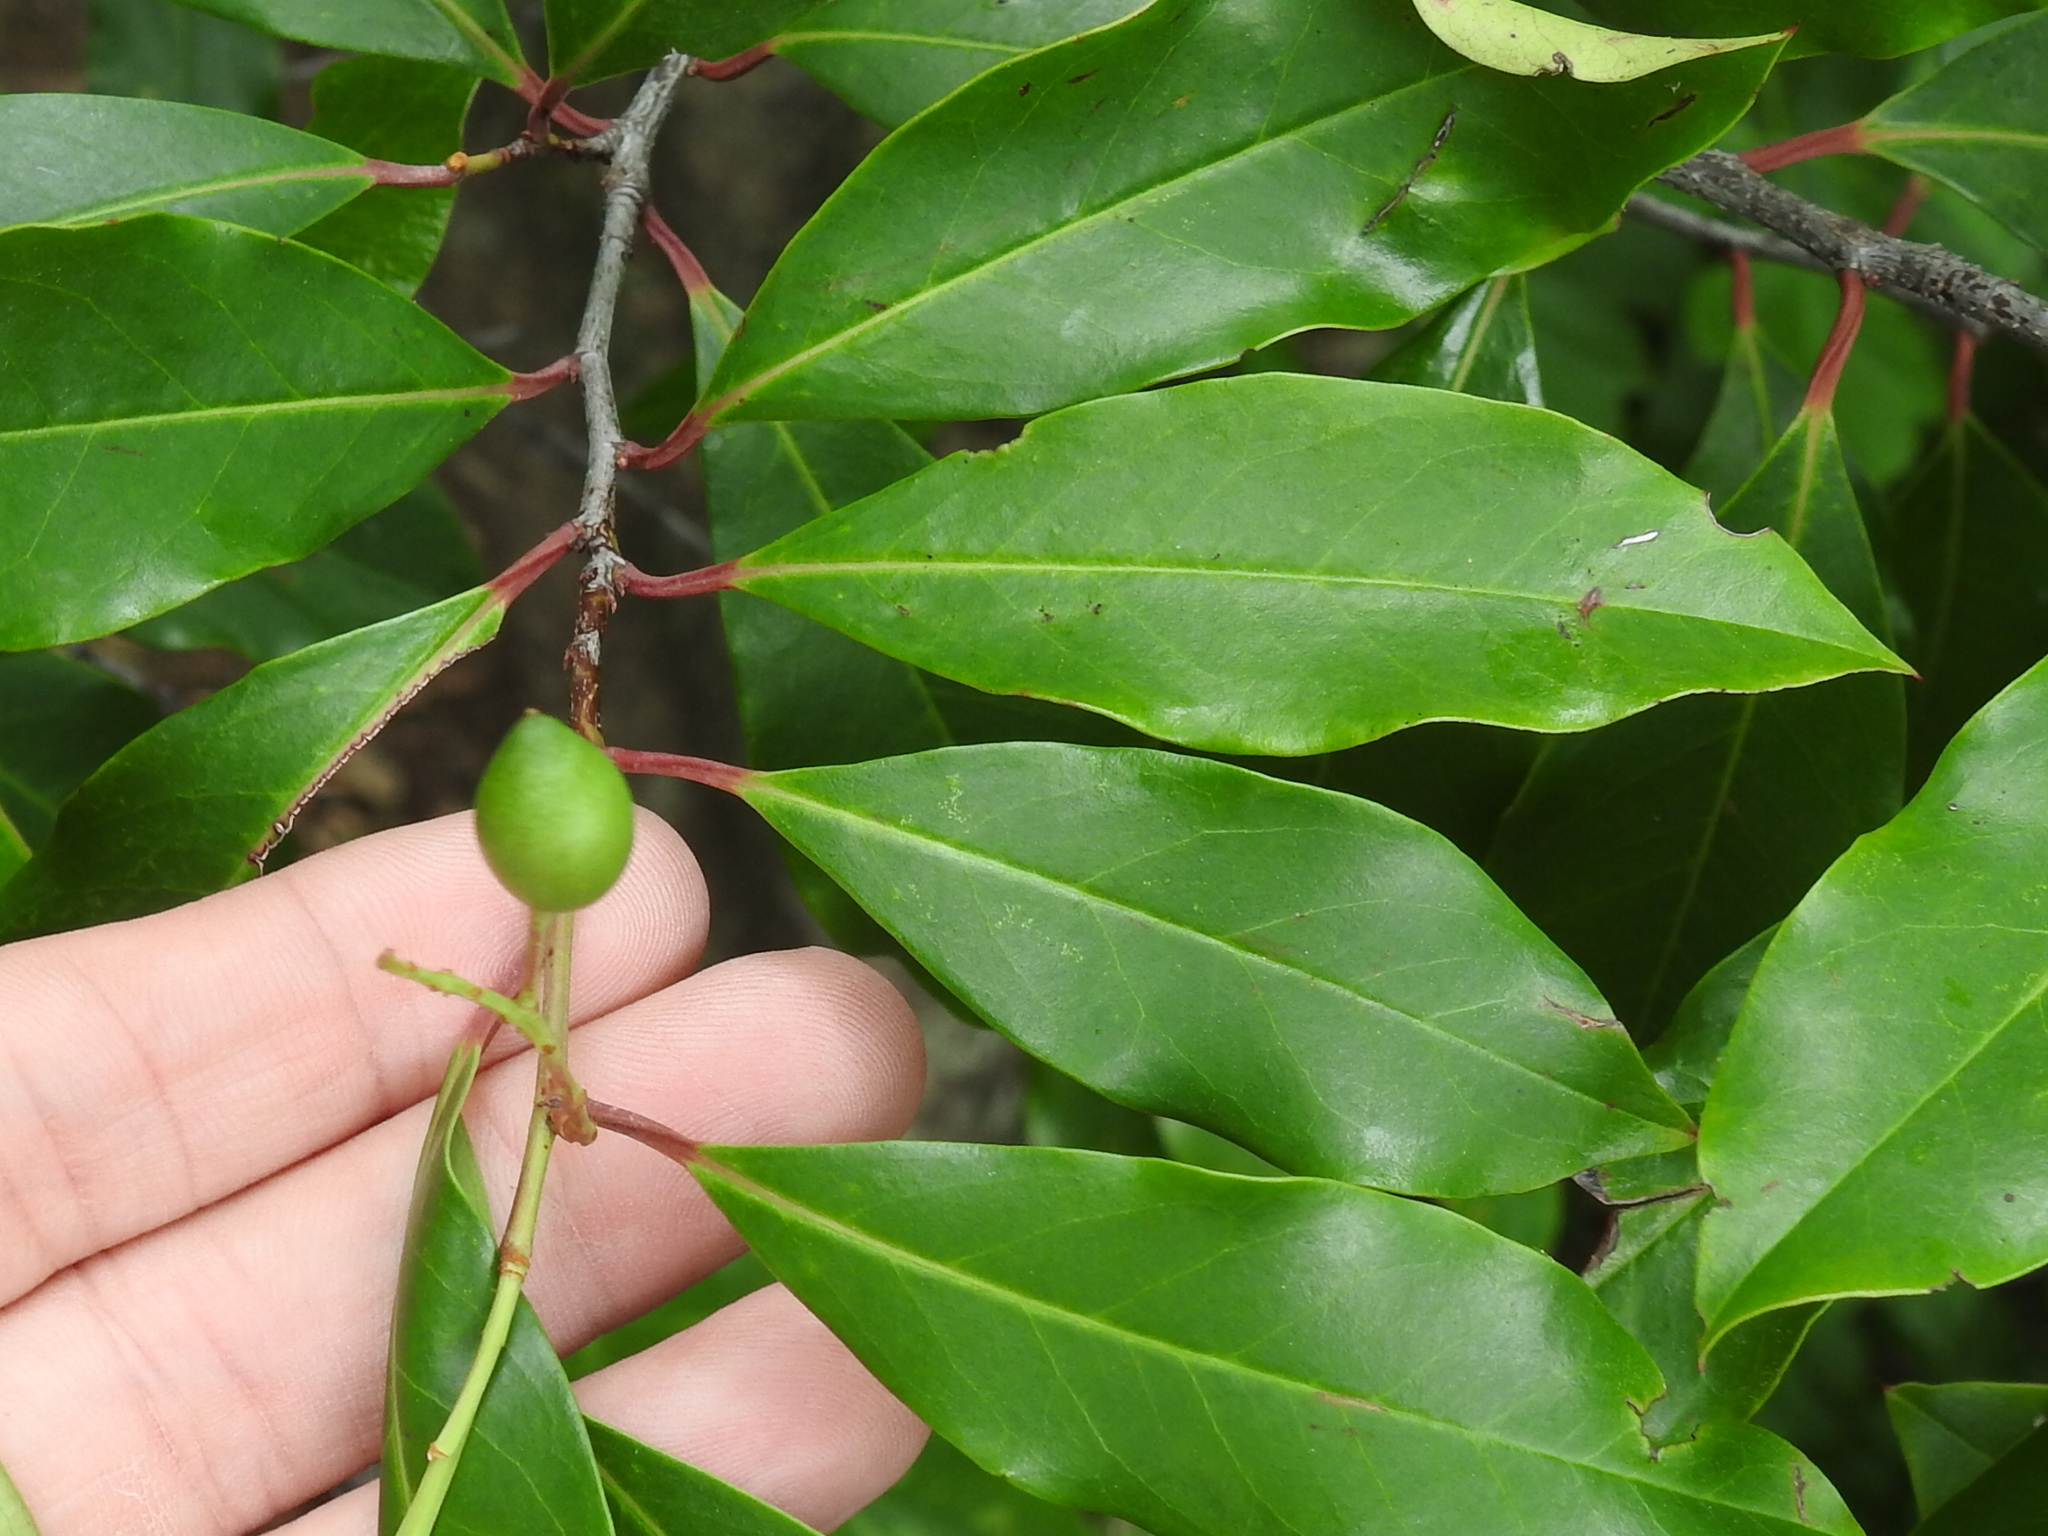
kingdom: Plantae
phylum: Tracheophyta
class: Magnoliopsida
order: Rosales
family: Rosaceae
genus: Prunus
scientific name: Prunus caroliniana
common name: Carolina laurel cherry
